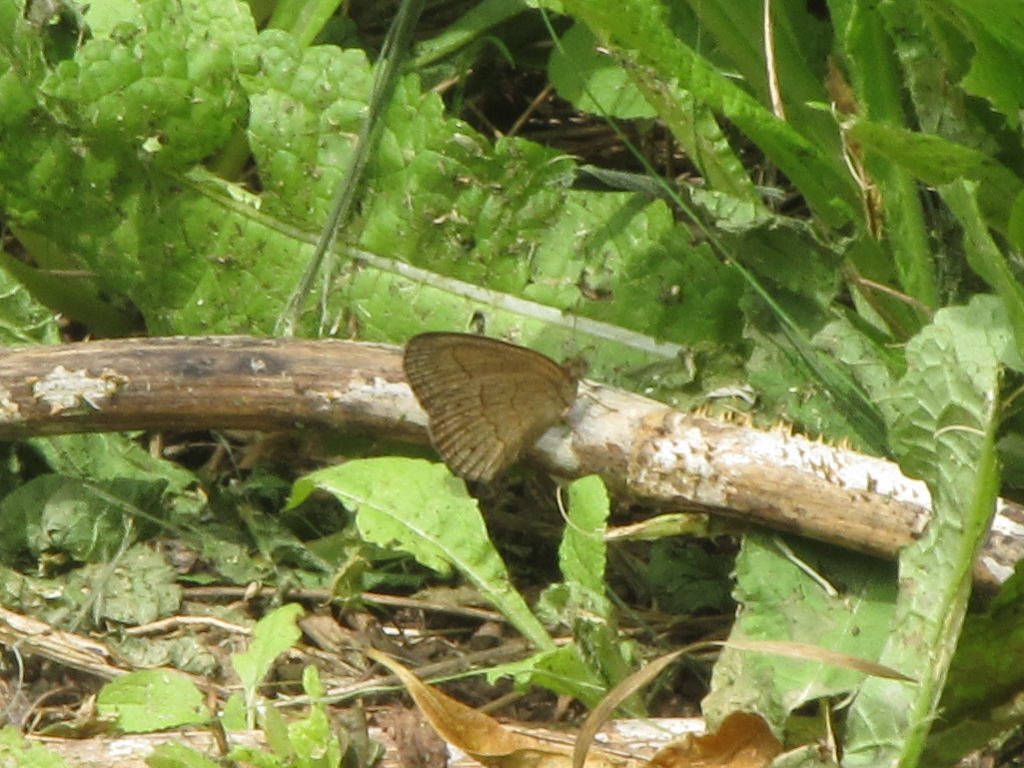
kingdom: Animalia
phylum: Arthropoda
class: Insecta
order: Lepidoptera
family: Nymphalidae
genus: Yphthimoides
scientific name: Yphthimoides celmis
